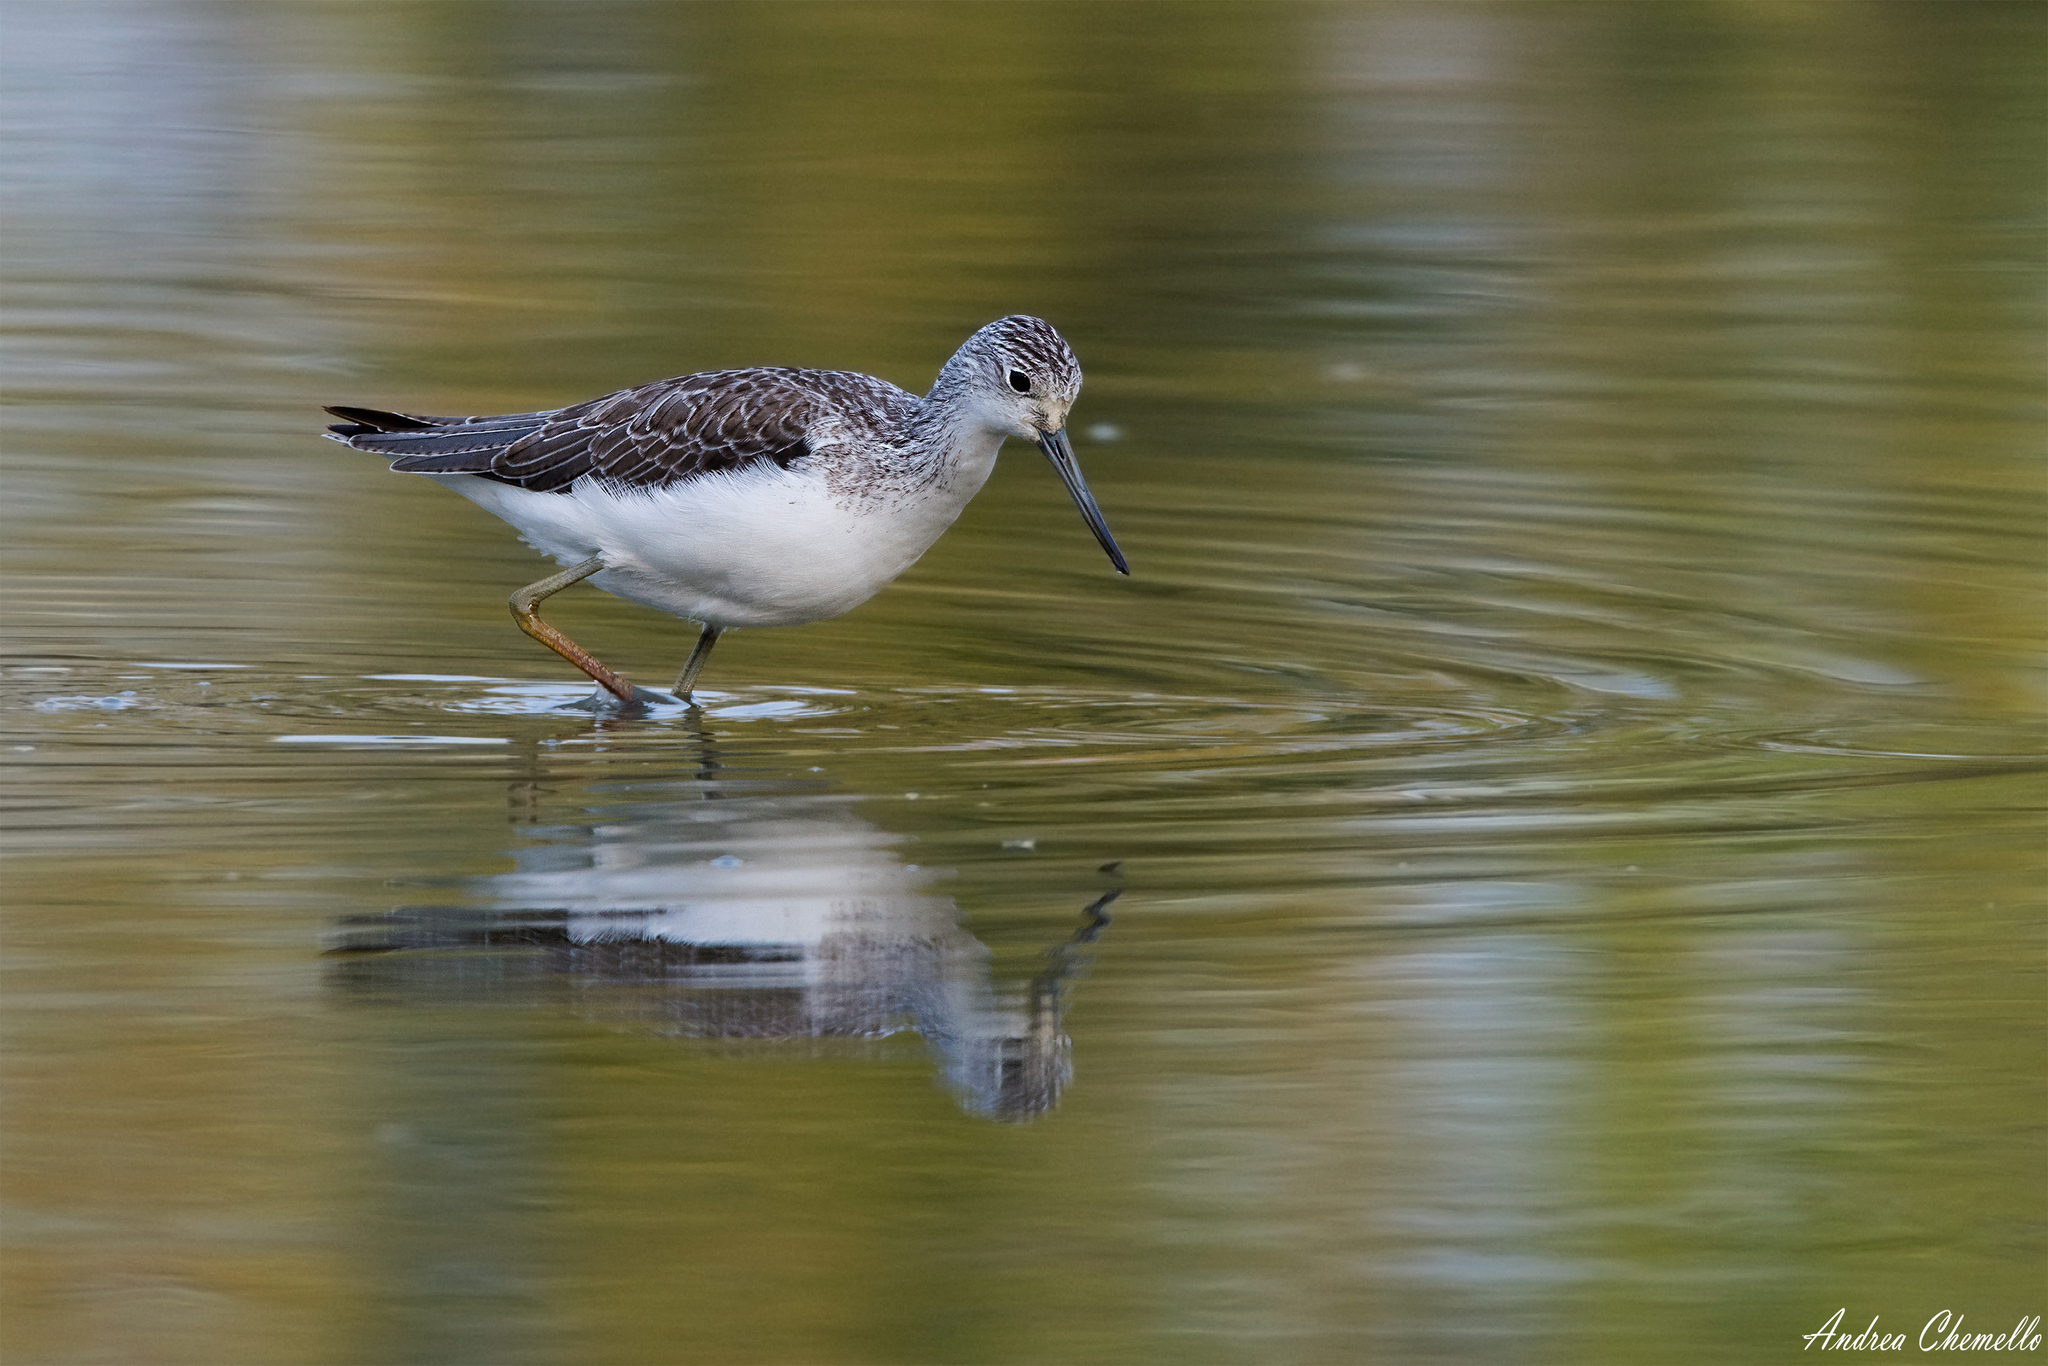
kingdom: Animalia
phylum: Chordata
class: Aves
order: Charadriiformes
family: Scolopacidae
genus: Tringa
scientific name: Tringa nebularia
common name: Common greenshank
